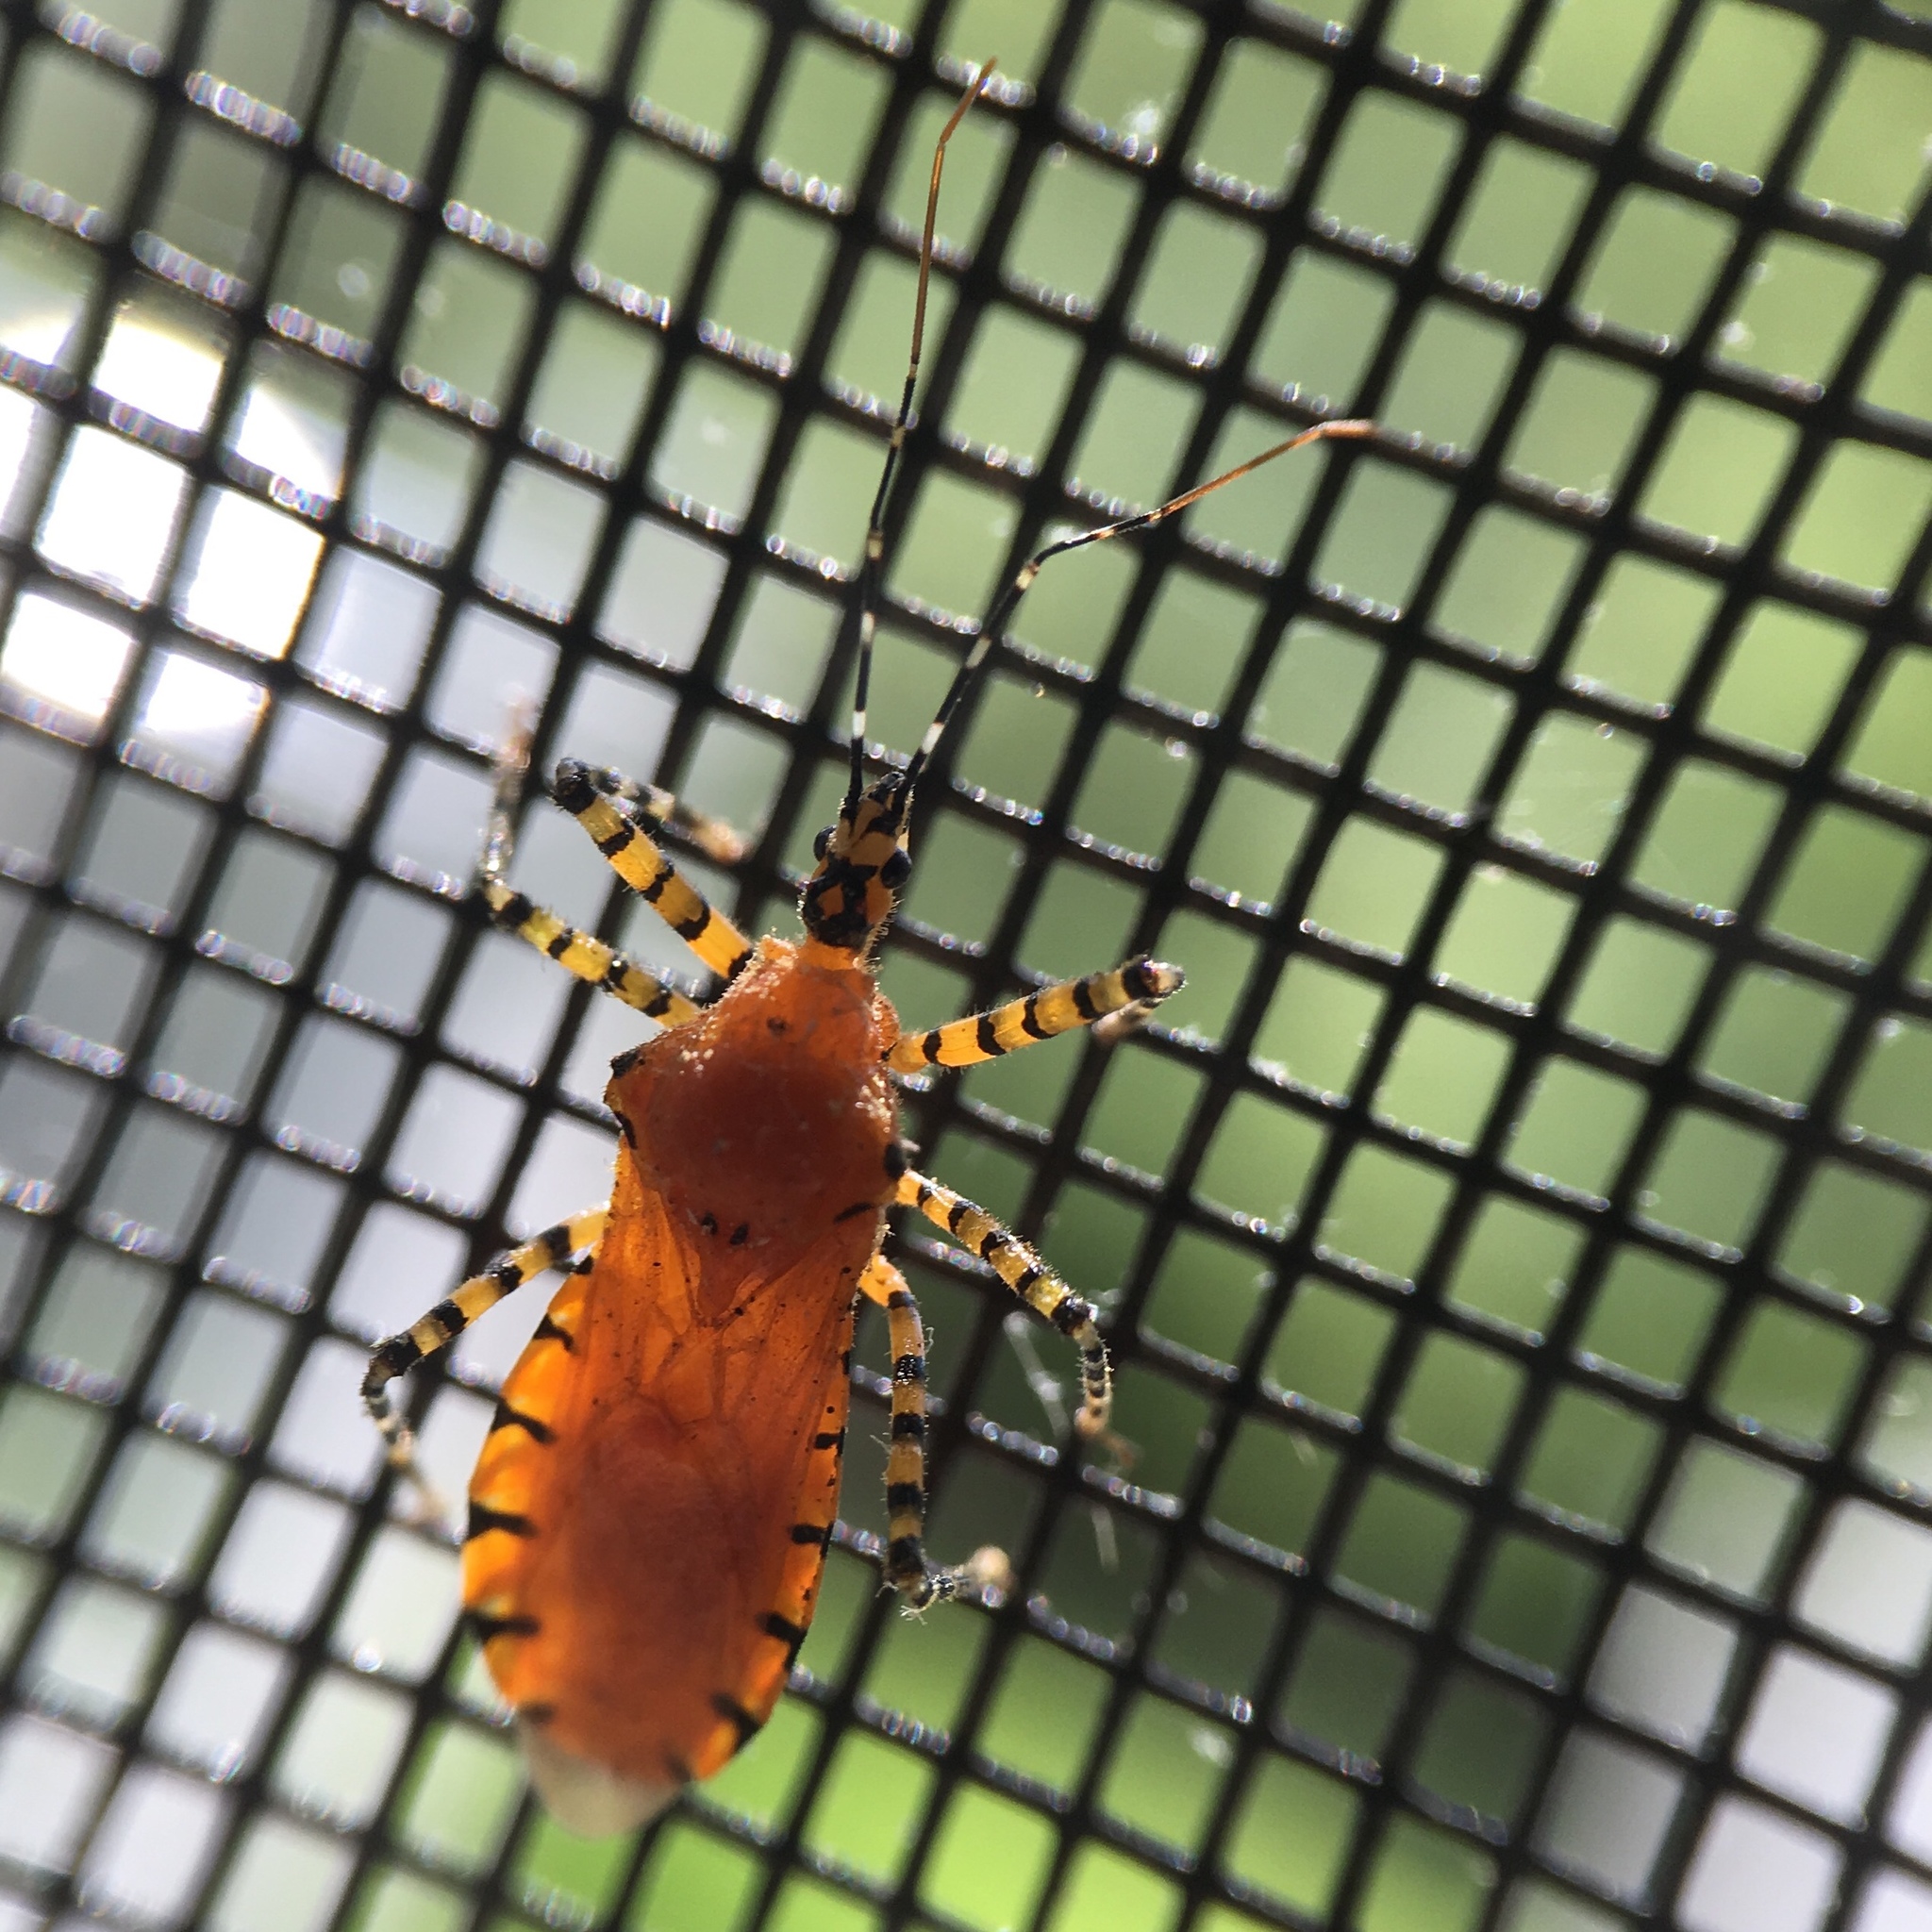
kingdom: Animalia
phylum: Arthropoda
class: Insecta
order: Hemiptera
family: Reduviidae
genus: Pselliopus
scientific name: Pselliopus barberi
